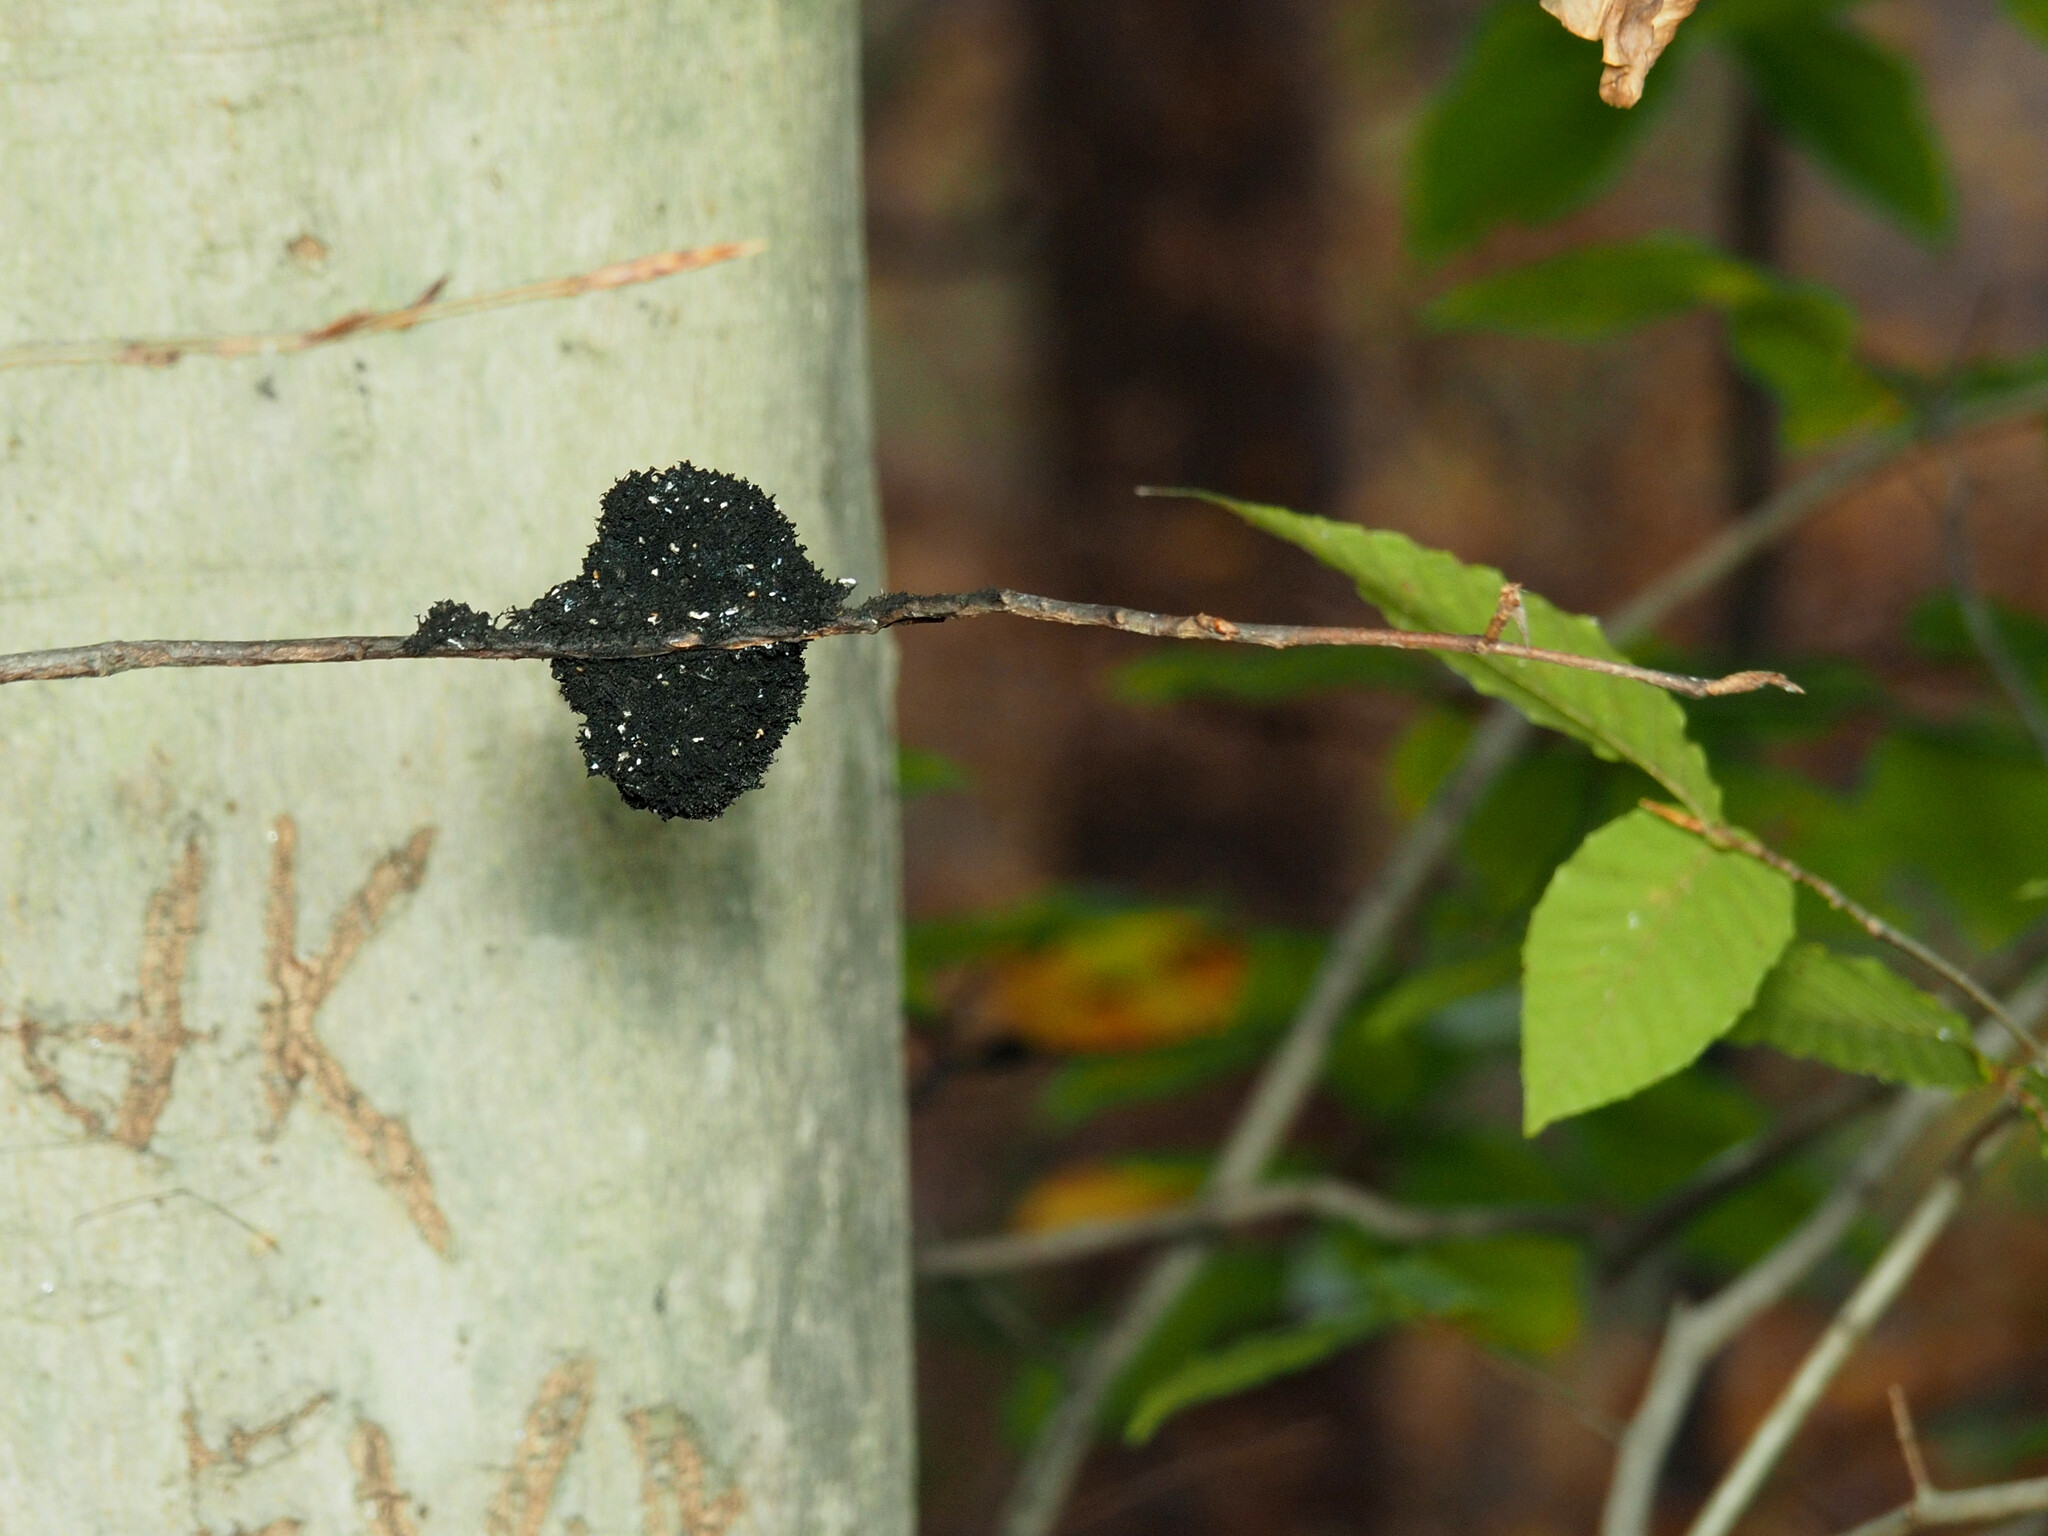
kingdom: Fungi
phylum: Ascomycota
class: Dothideomycetes
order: Capnodiales
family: Capnodiaceae
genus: Scorias
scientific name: Scorias spongiosa
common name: Black sooty mold
